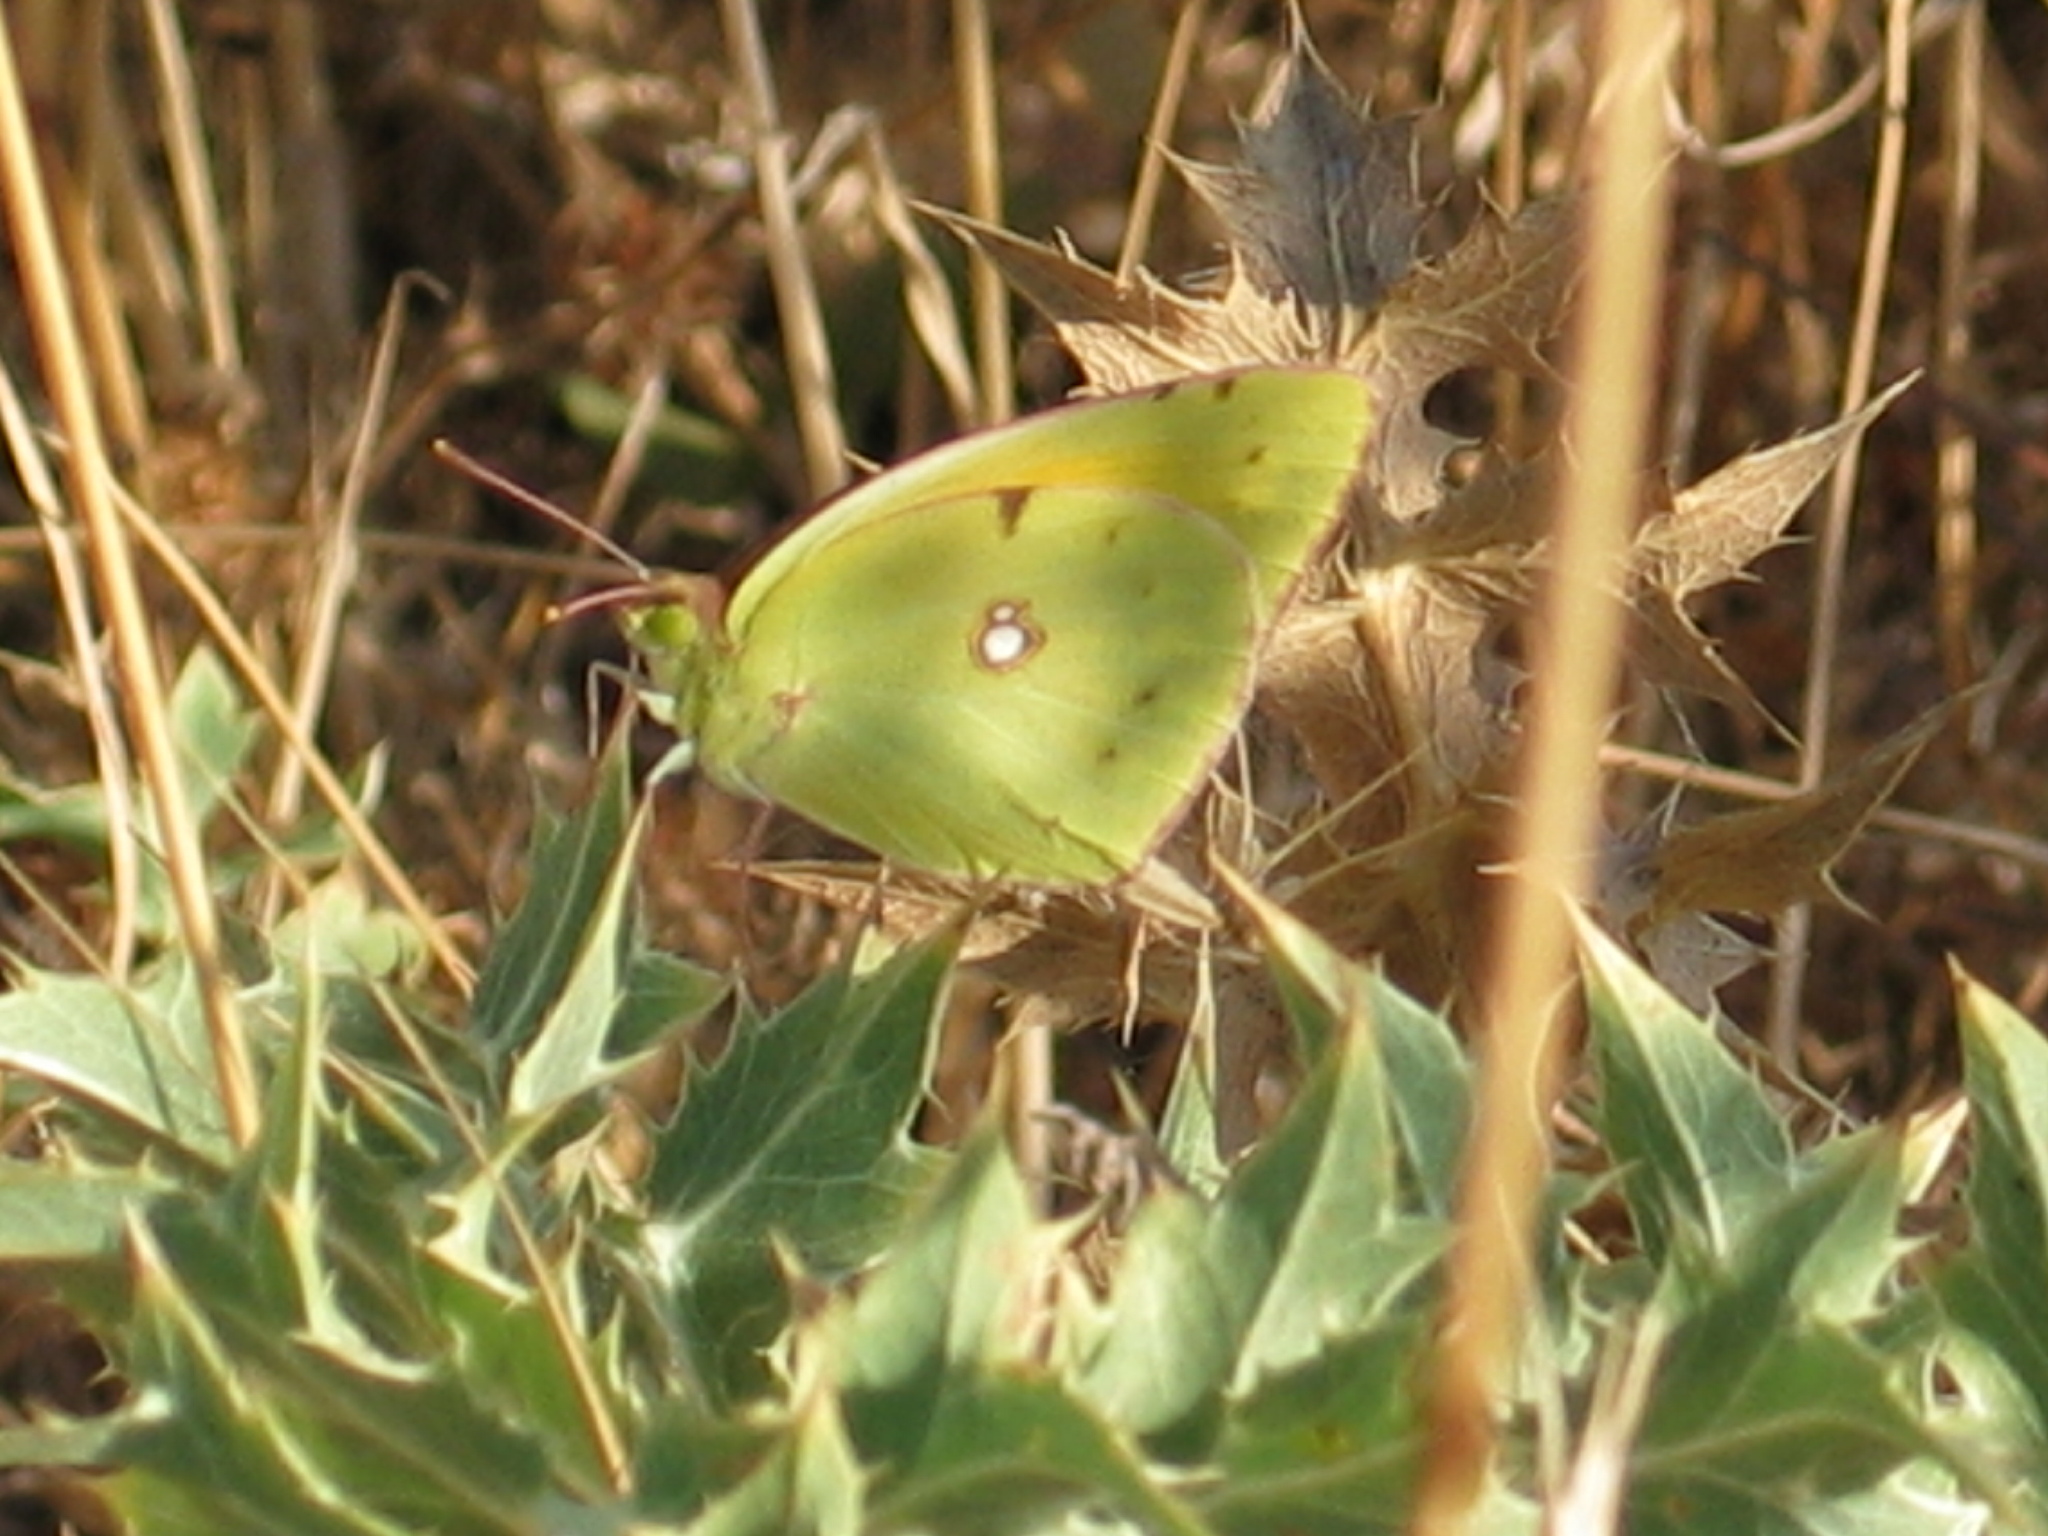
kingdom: Animalia
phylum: Arthropoda
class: Insecta
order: Lepidoptera
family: Pieridae
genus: Colias
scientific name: Colias croceus
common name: Clouded yellow
